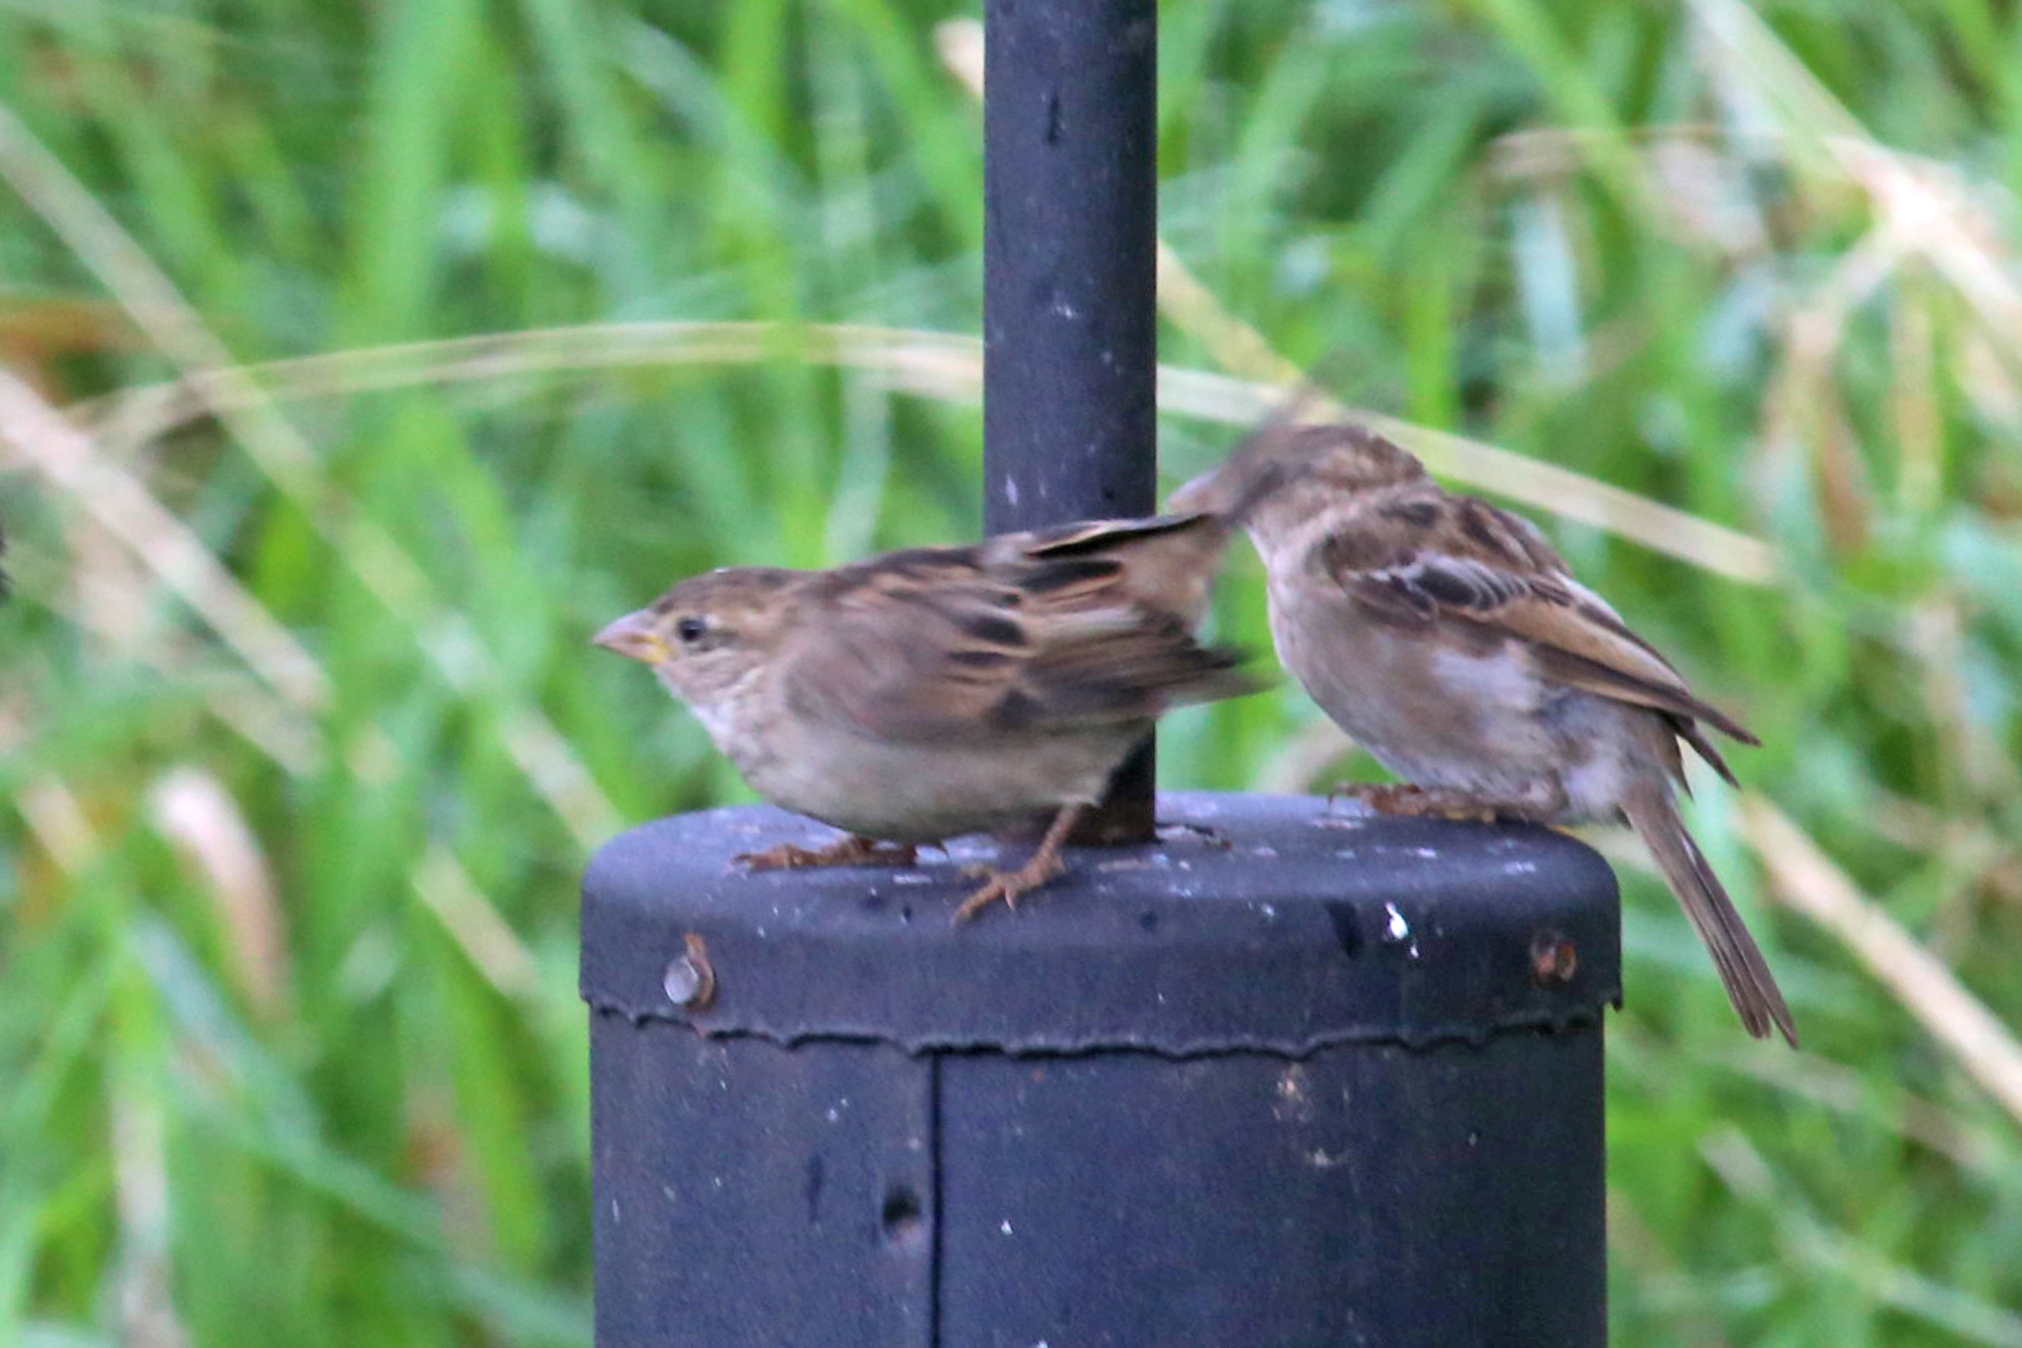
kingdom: Animalia
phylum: Chordata
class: Aves
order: Passeriformes
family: Passeridae
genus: Passer
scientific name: Passer domesticus
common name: House sparrow
